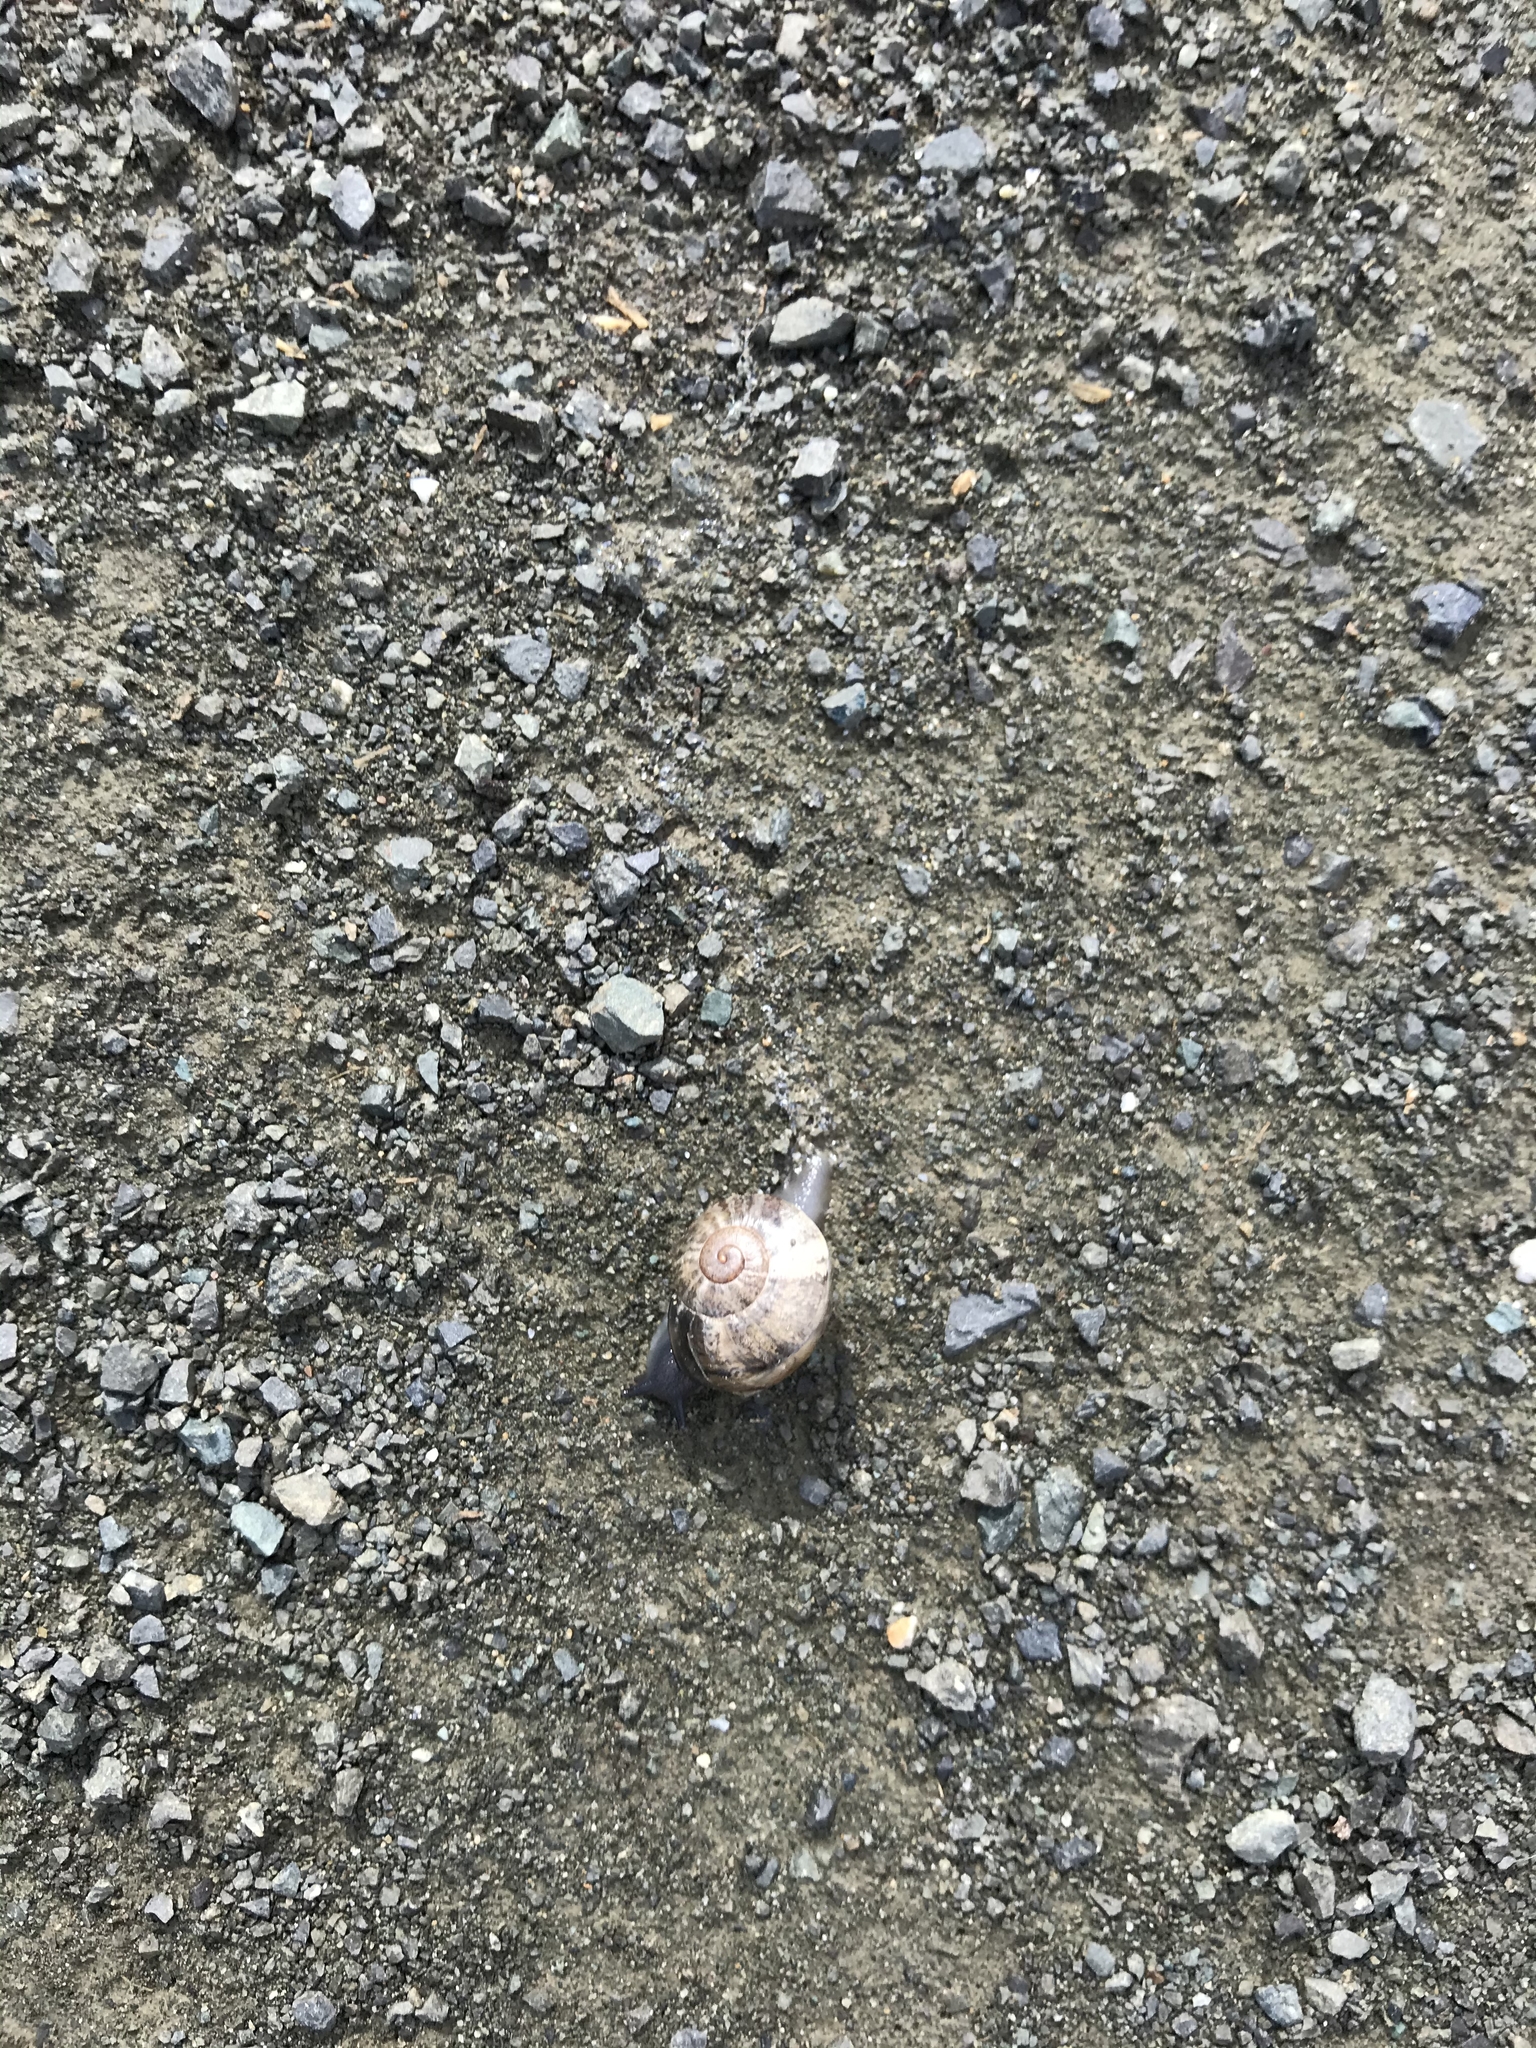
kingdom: Animalia
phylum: Mollusca
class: Gastropoda
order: Stylommatophora
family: Helicidae
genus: Otala
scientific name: Otala lactea
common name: Milk snail
